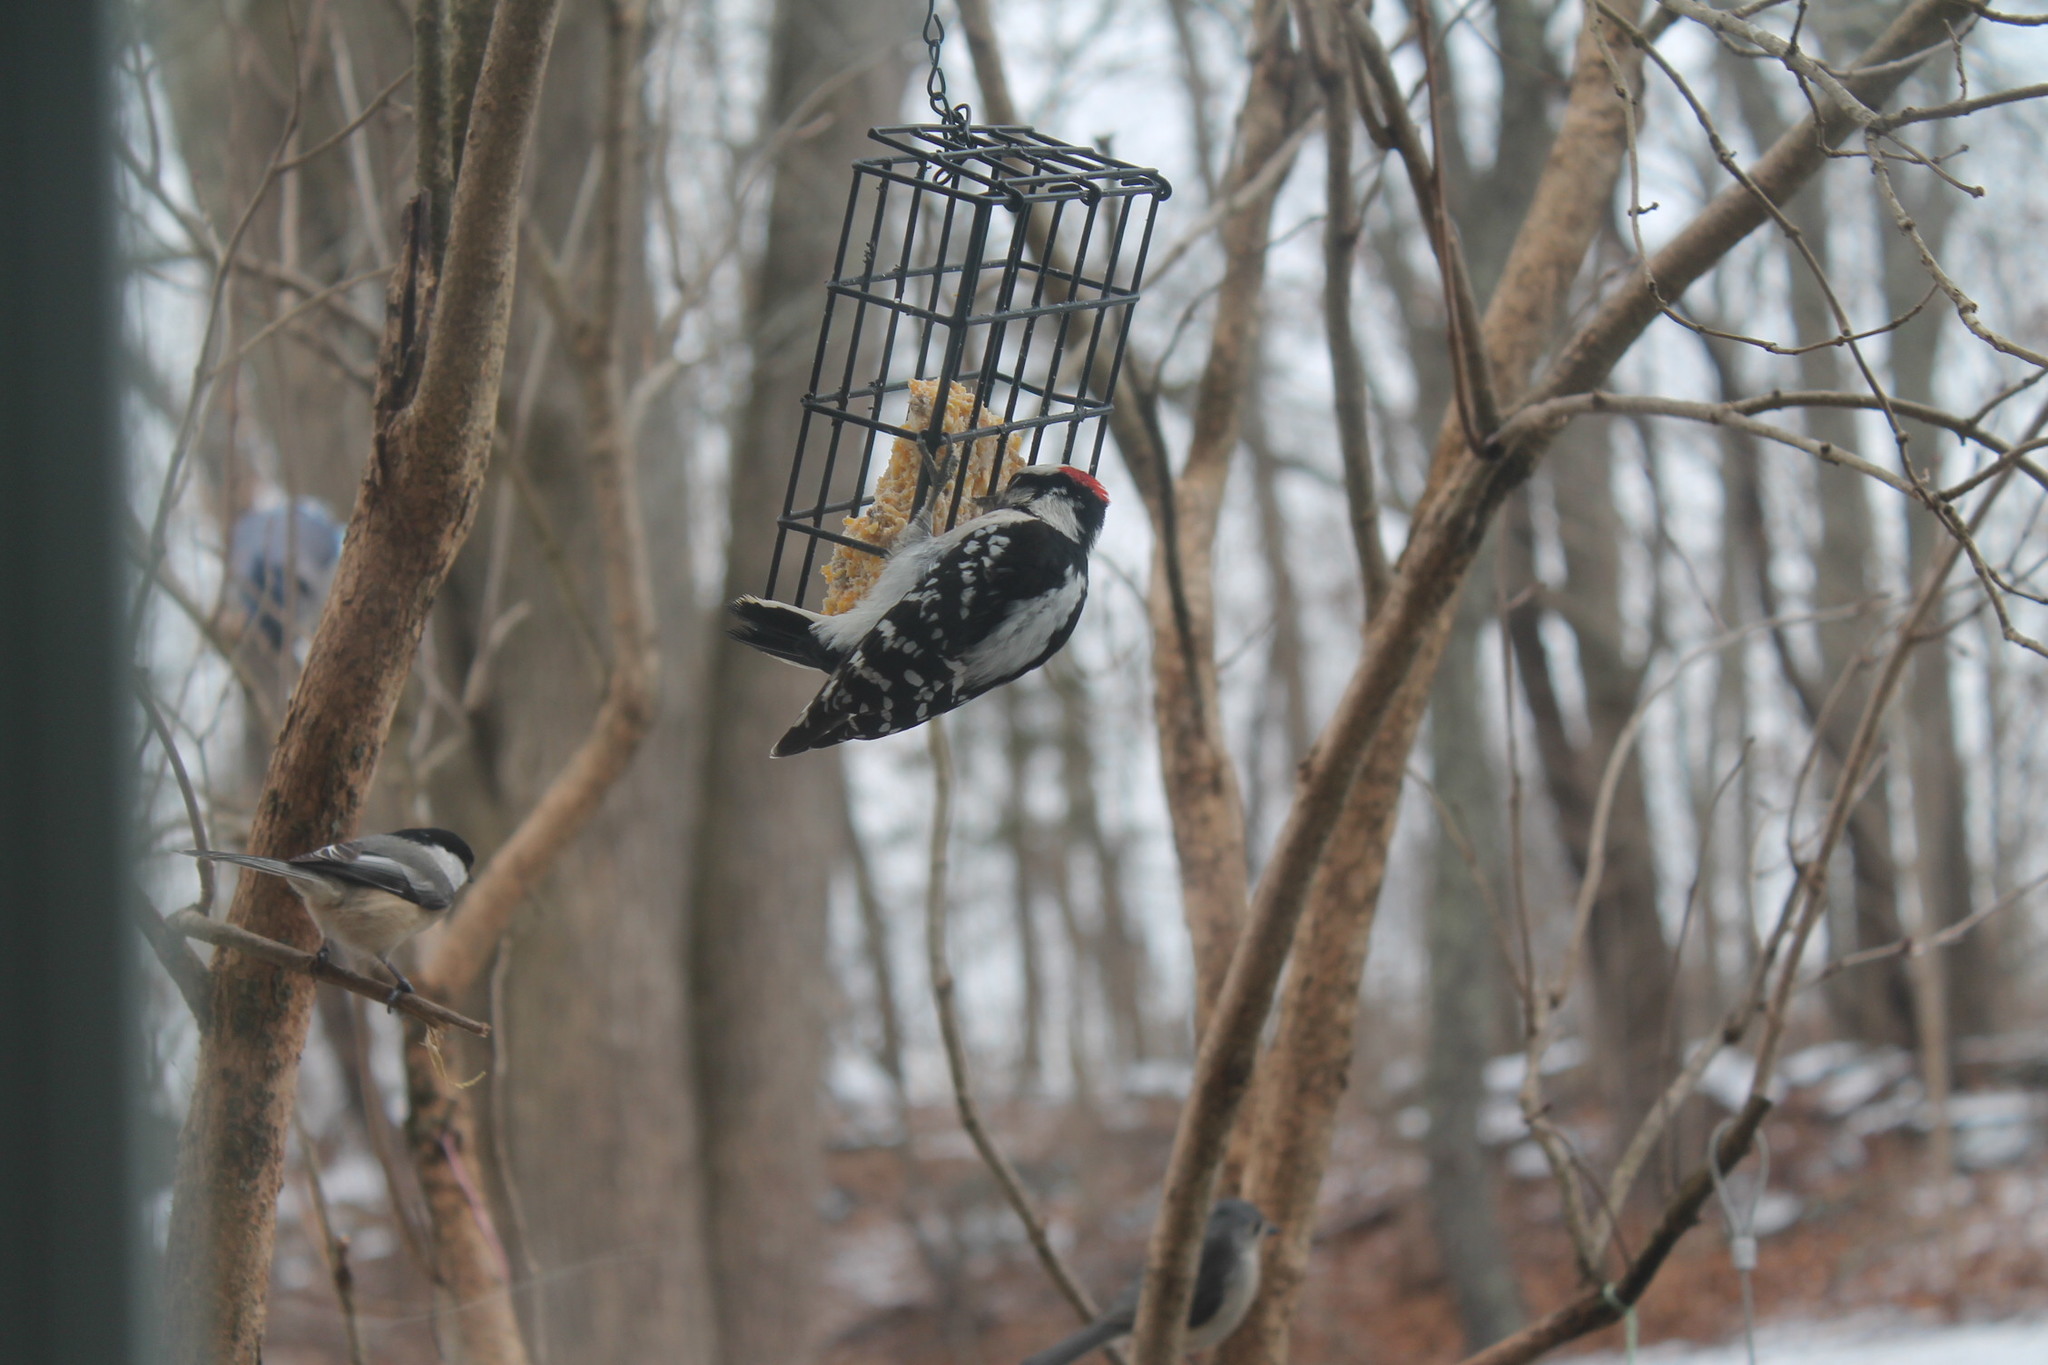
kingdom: Animalia
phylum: Chordata
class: Aves
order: Piciformes
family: Picidae
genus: Dryobates
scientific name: Dryobates pubescens
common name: Downy woodpecker
